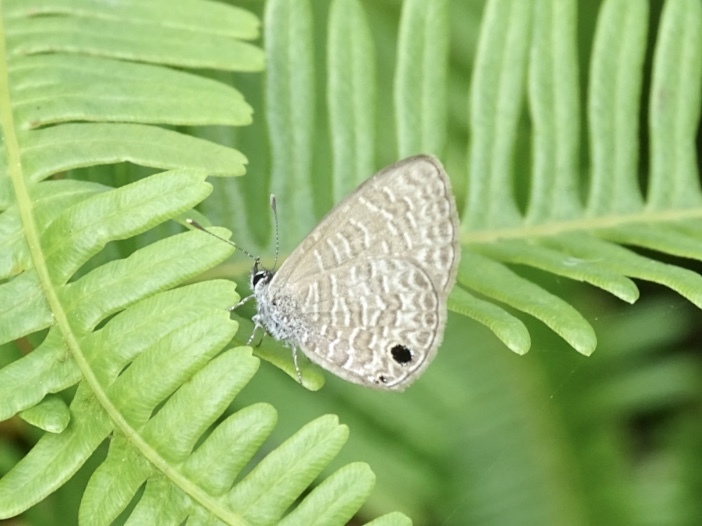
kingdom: Animalia
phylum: Arthropoda
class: Insecta
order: Lepidoptera
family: Lycaenidae
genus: Prosotas
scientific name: Prosotas dubiosa
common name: Tailless lineblue
